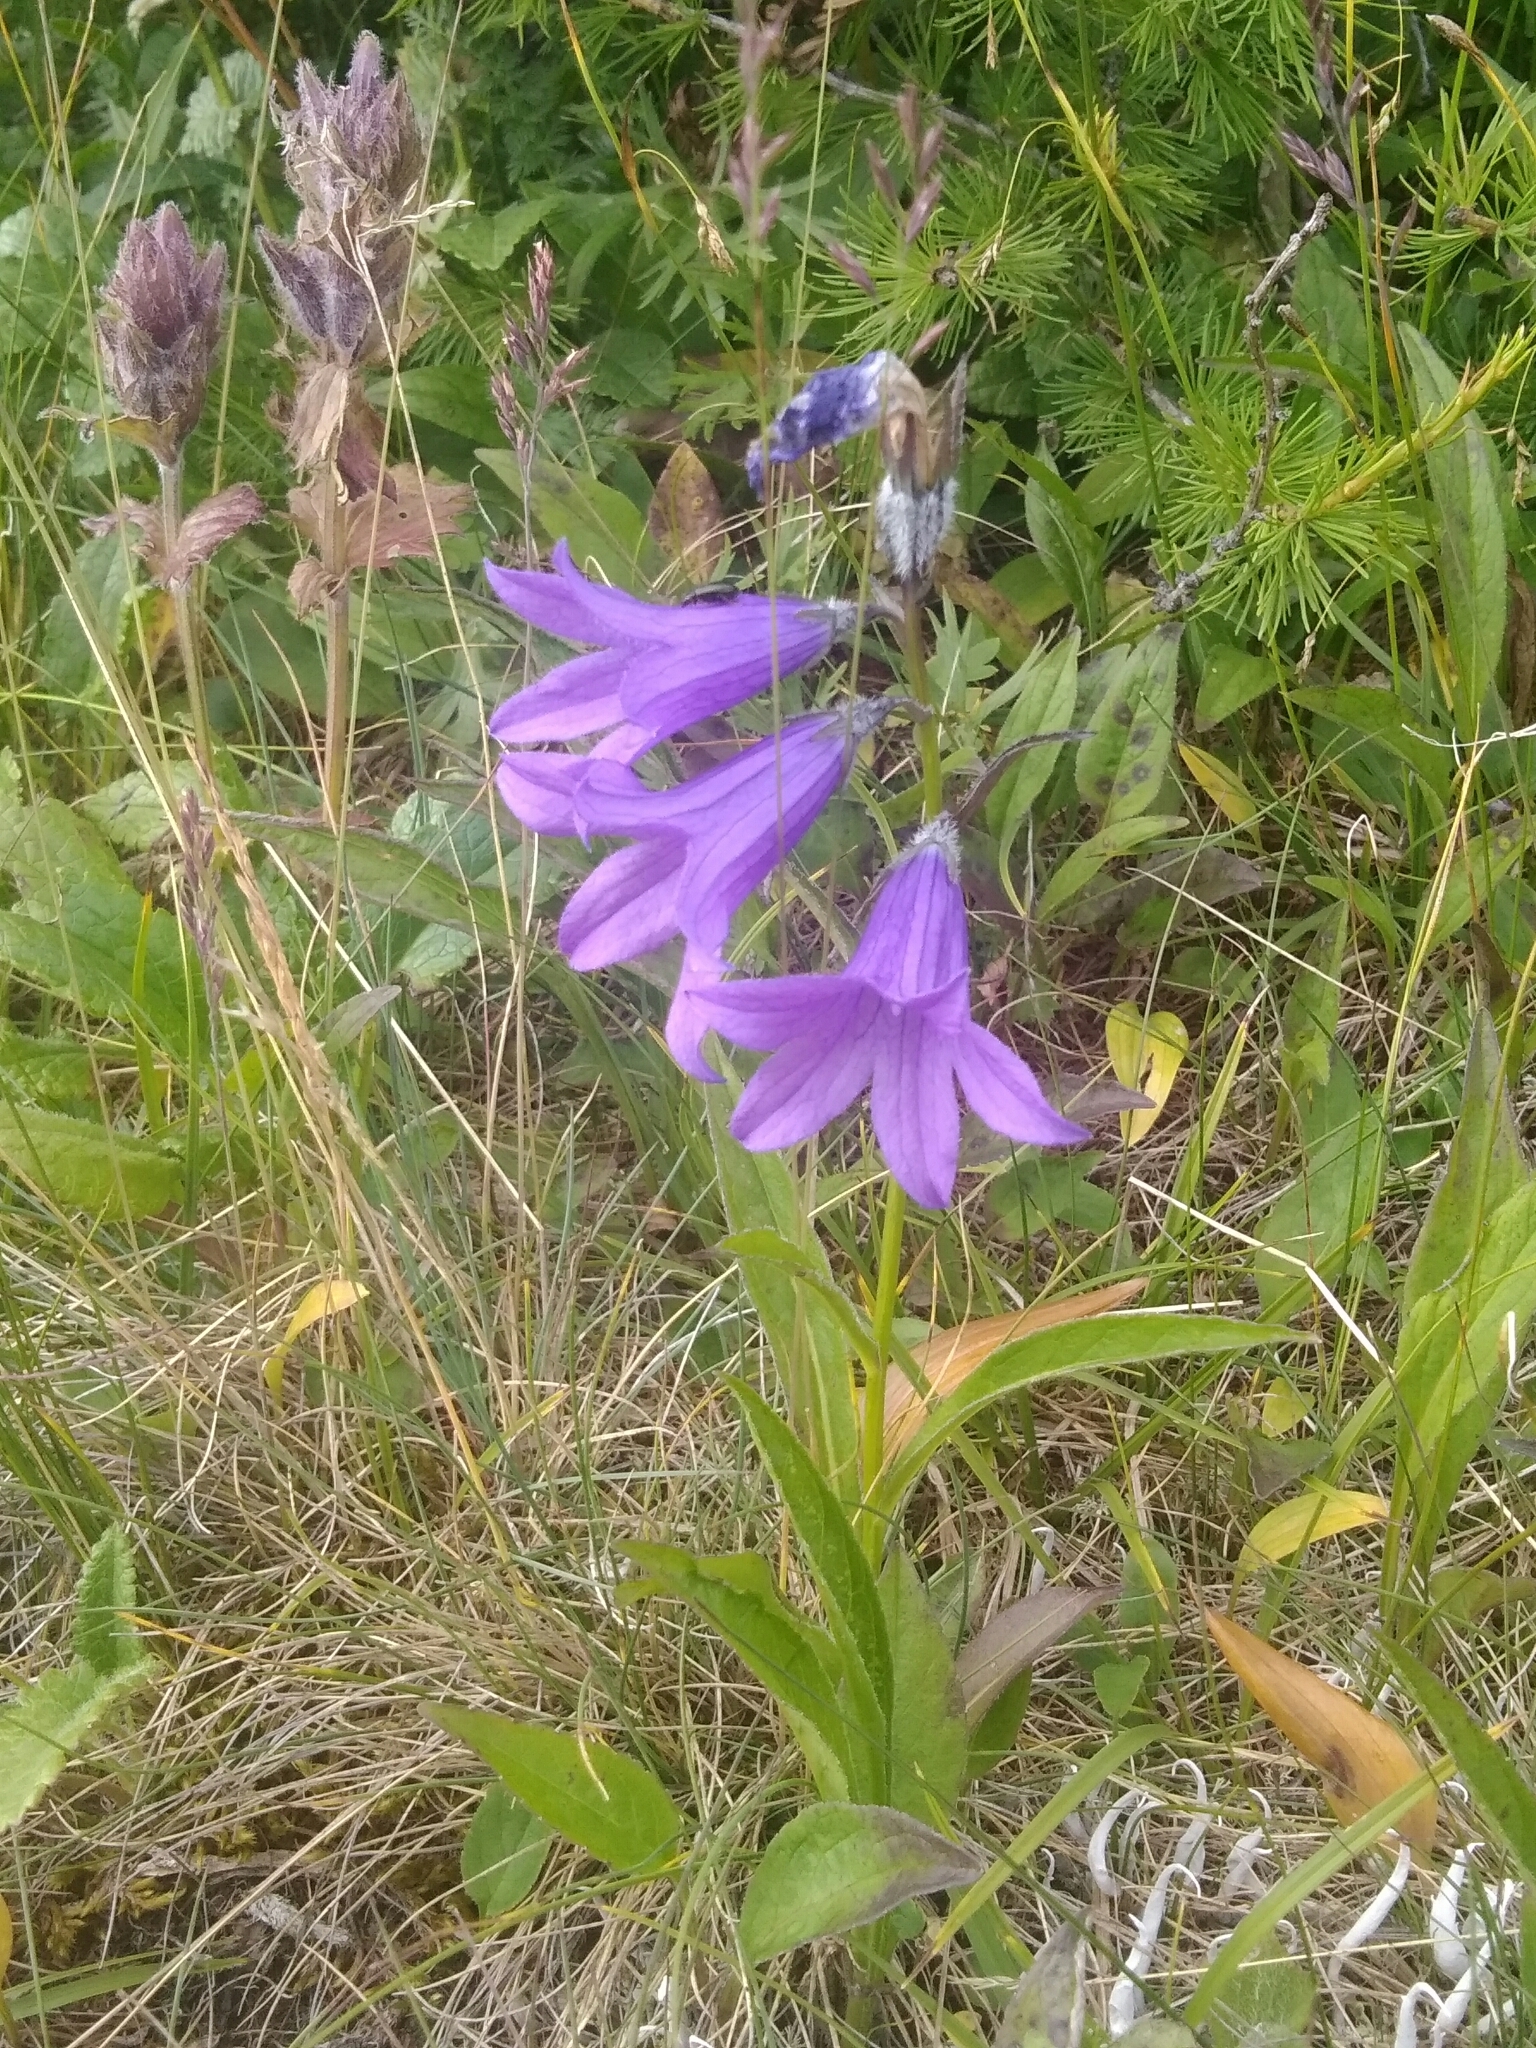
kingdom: Plantae
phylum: Tracheophyta
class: Magnoliopsida
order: Asterales
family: Campanulaceae
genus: Campanula
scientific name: Campanula stevenii
